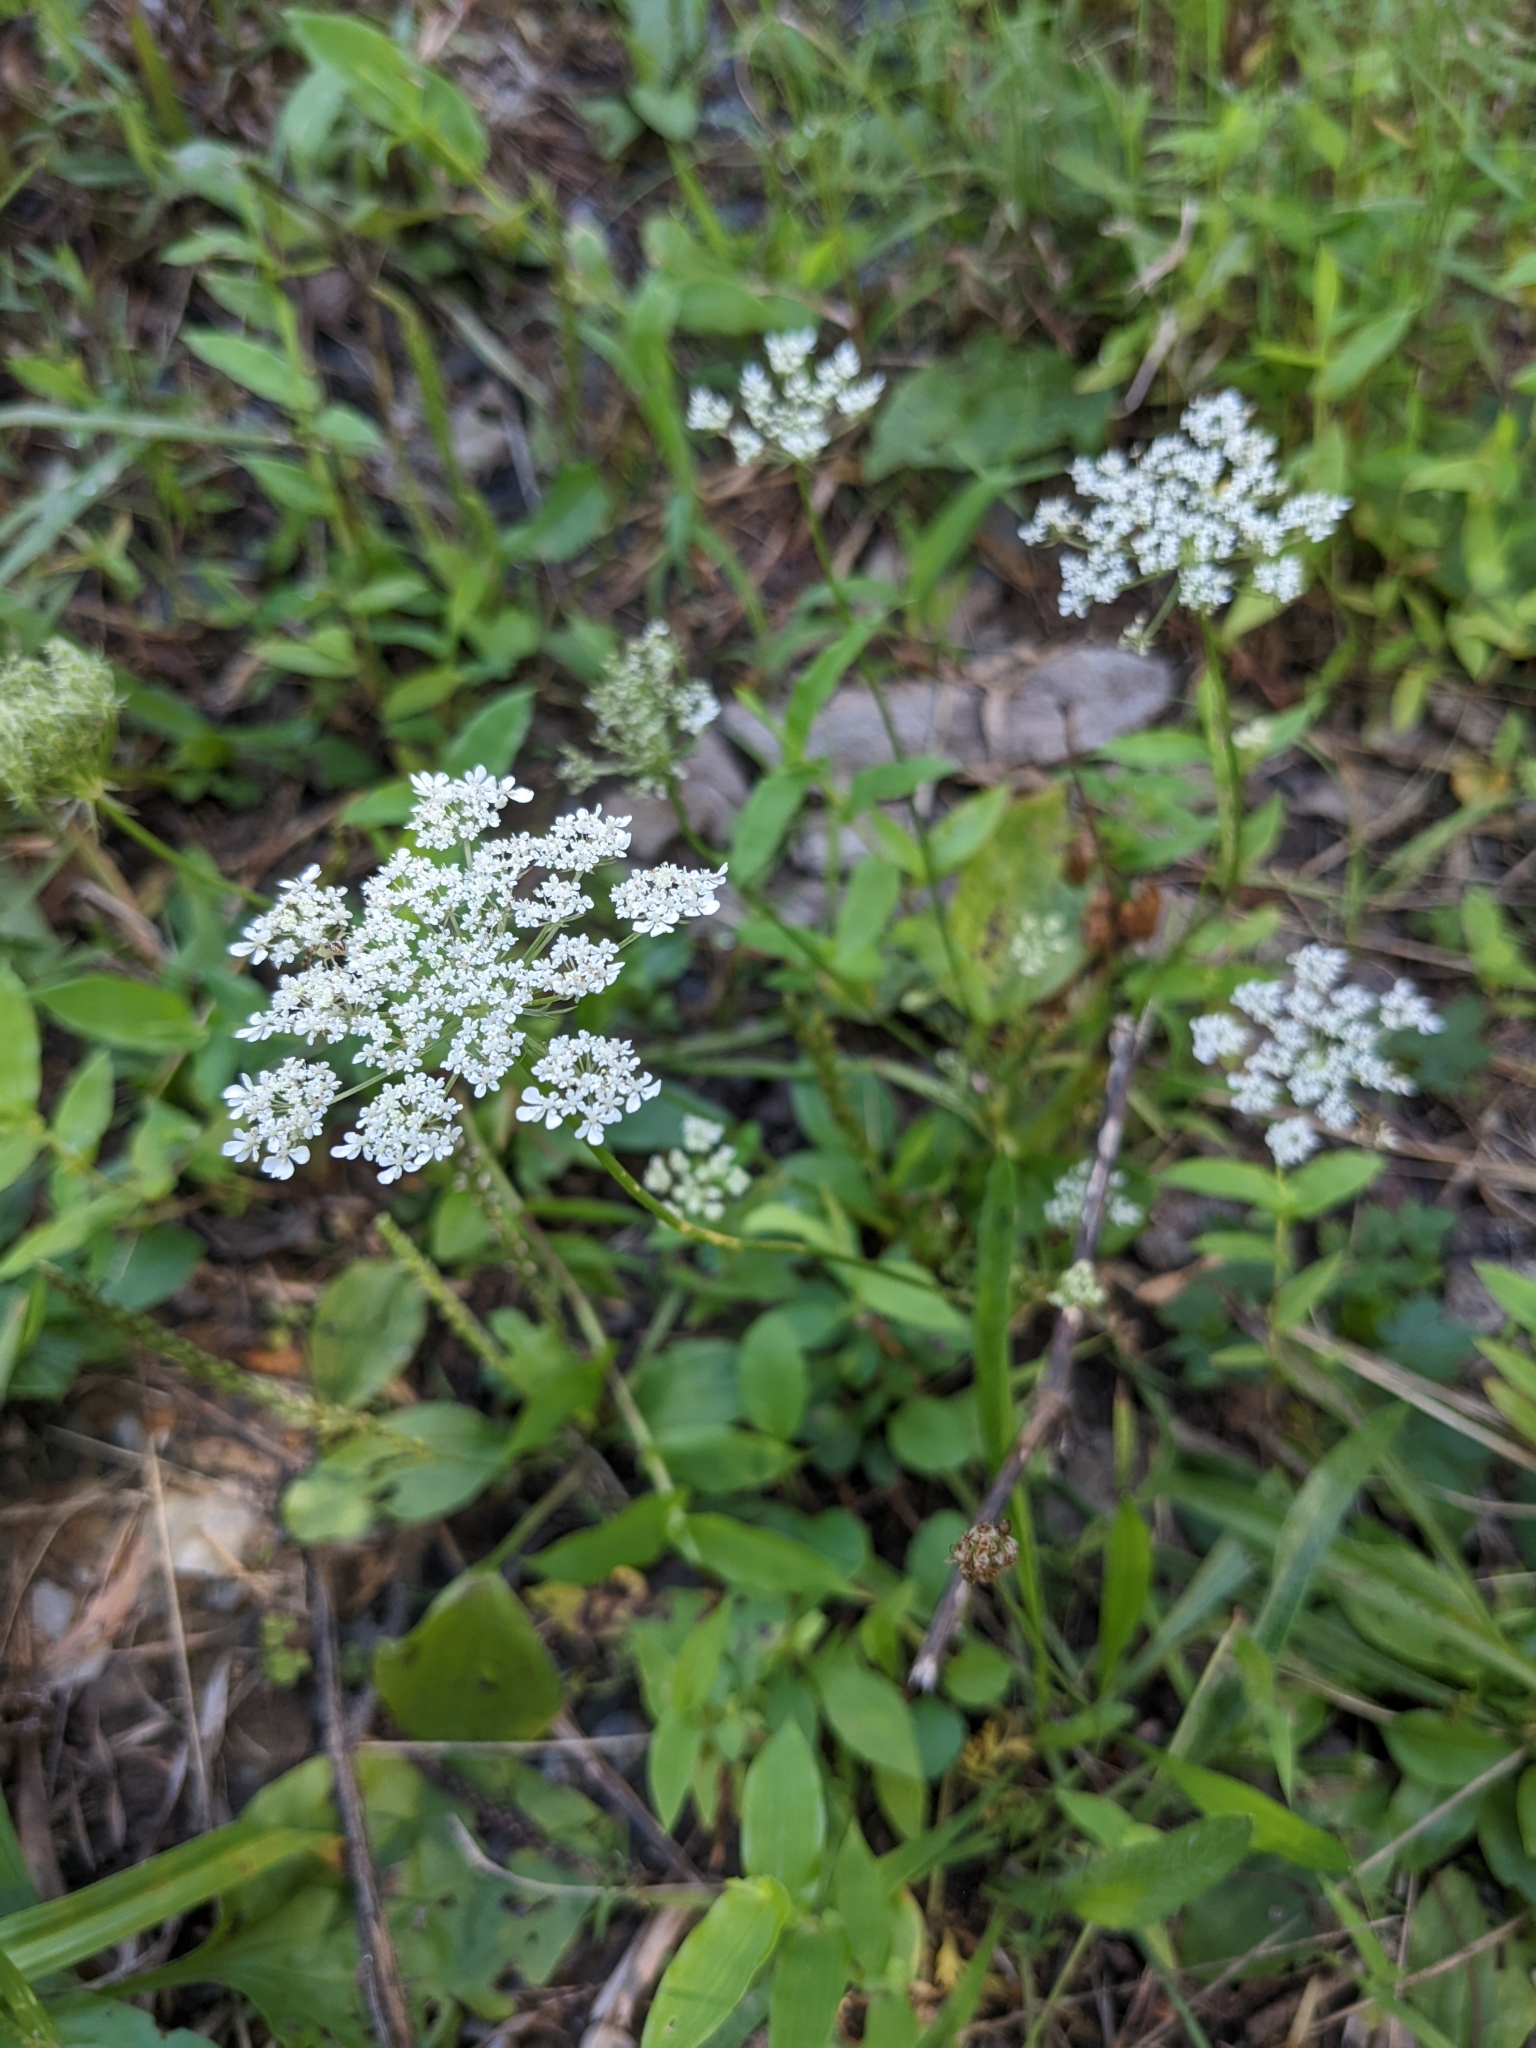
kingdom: Plantae
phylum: Tracheophyta
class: Magnoliopsida
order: Apiales
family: Apiaceae
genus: Daucus
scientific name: Daucus carota
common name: Wild carrot
